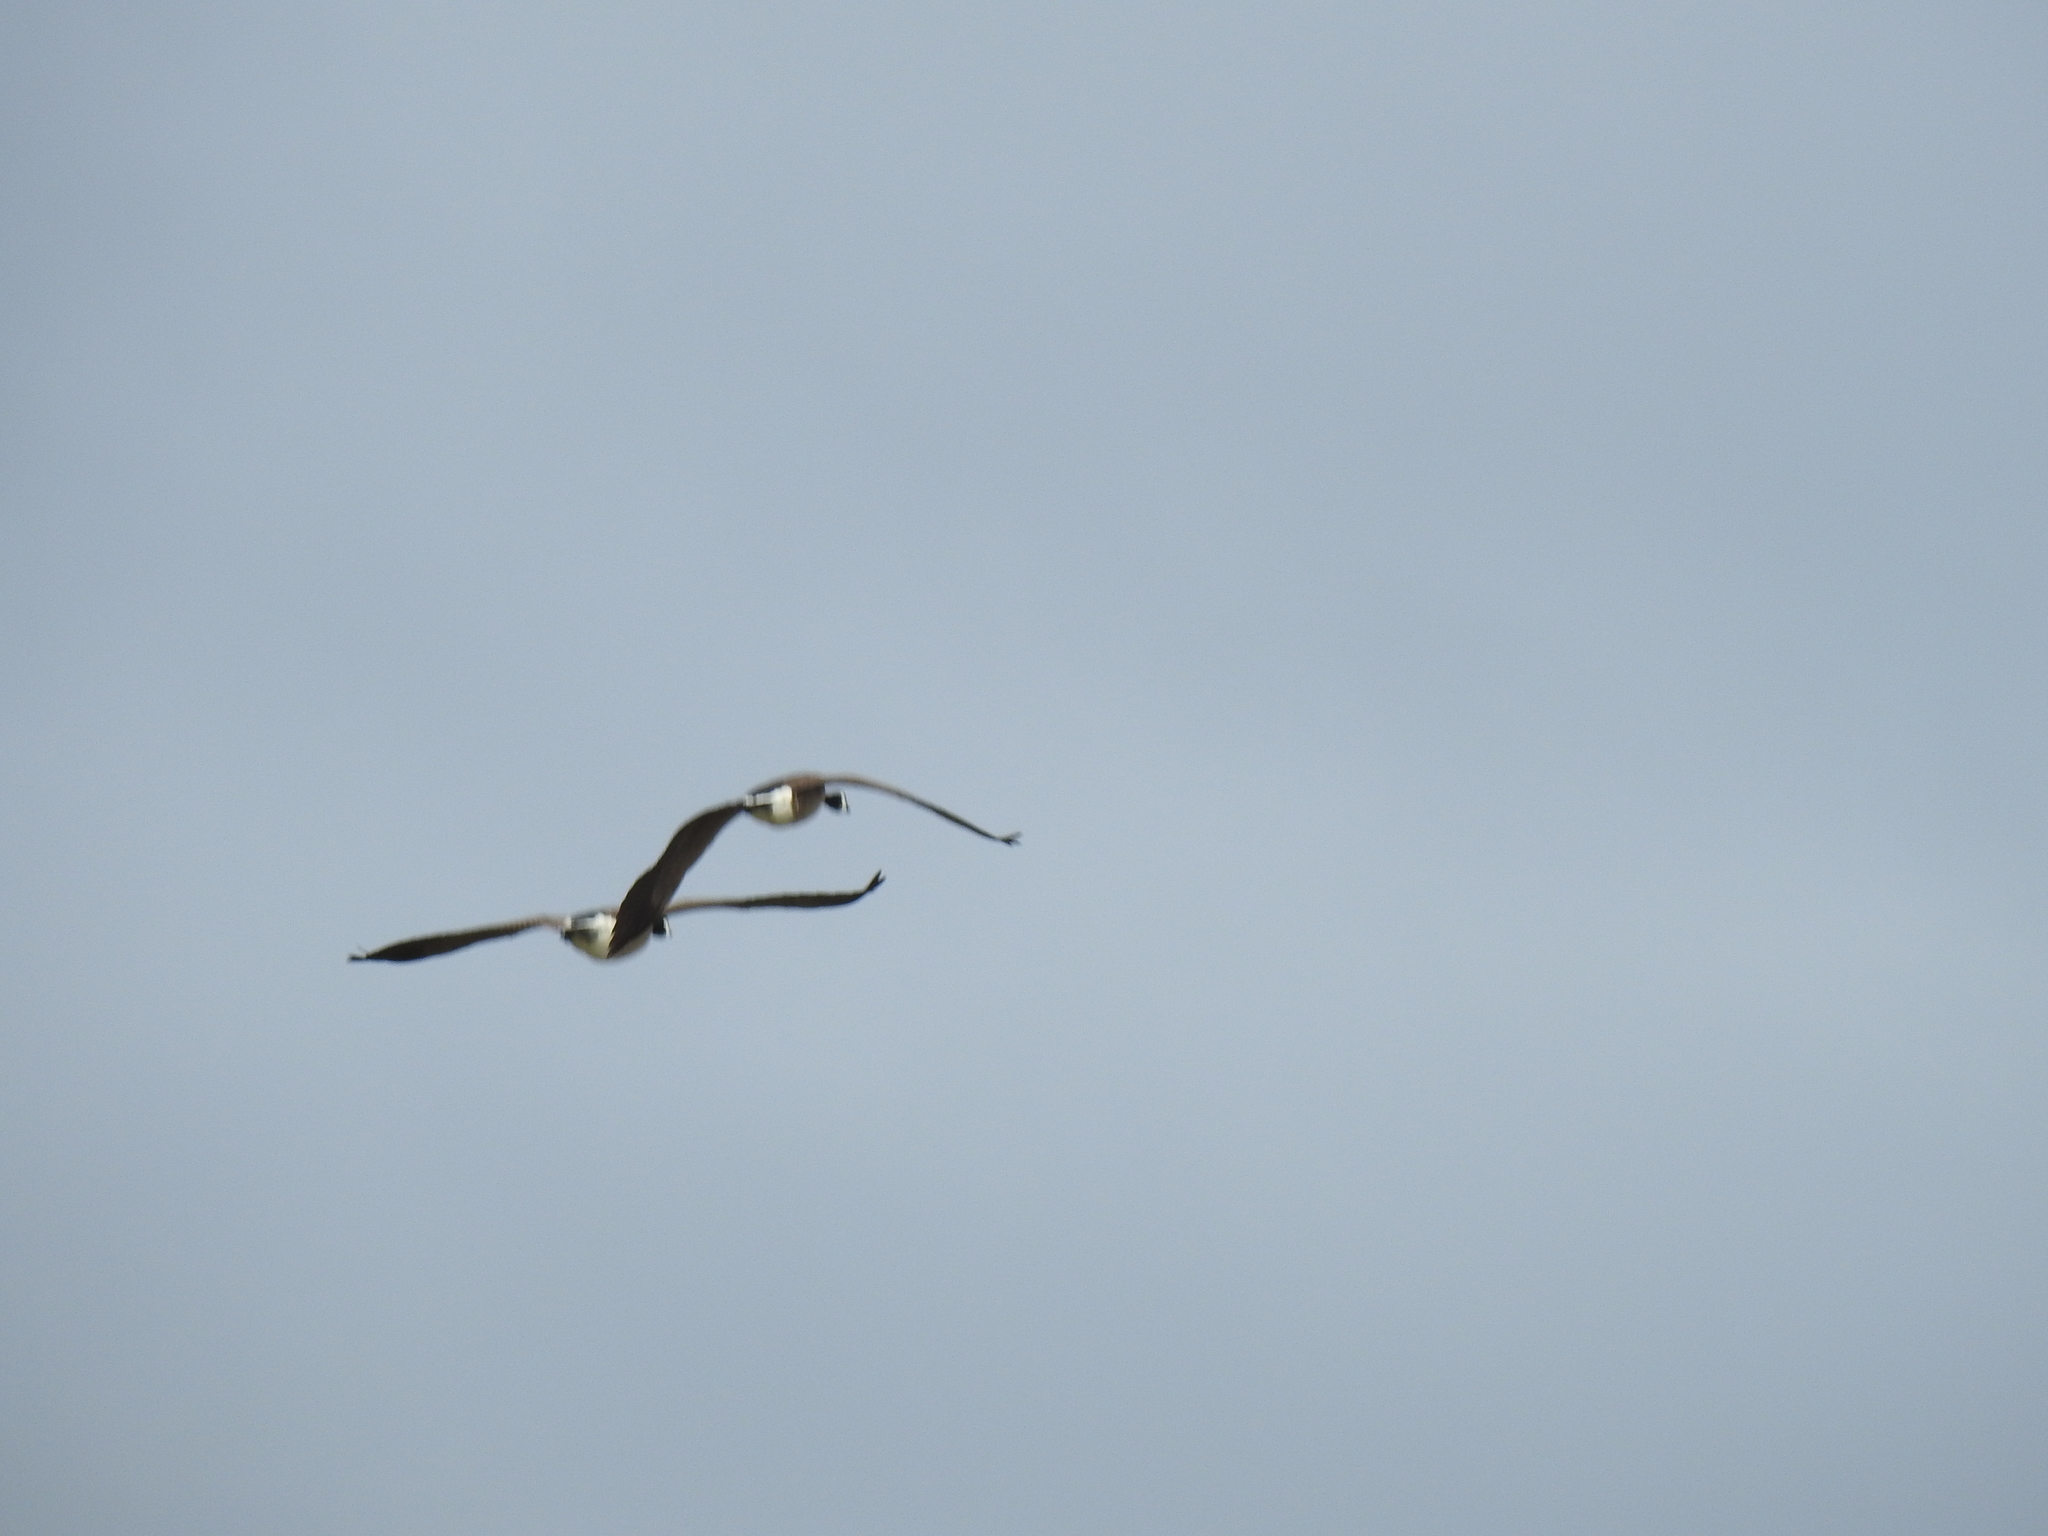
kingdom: Animalia
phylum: Chordata
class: Aves
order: Anseriformes
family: Anatidae
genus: Branta
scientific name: Branta canadensis
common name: Canada goose
